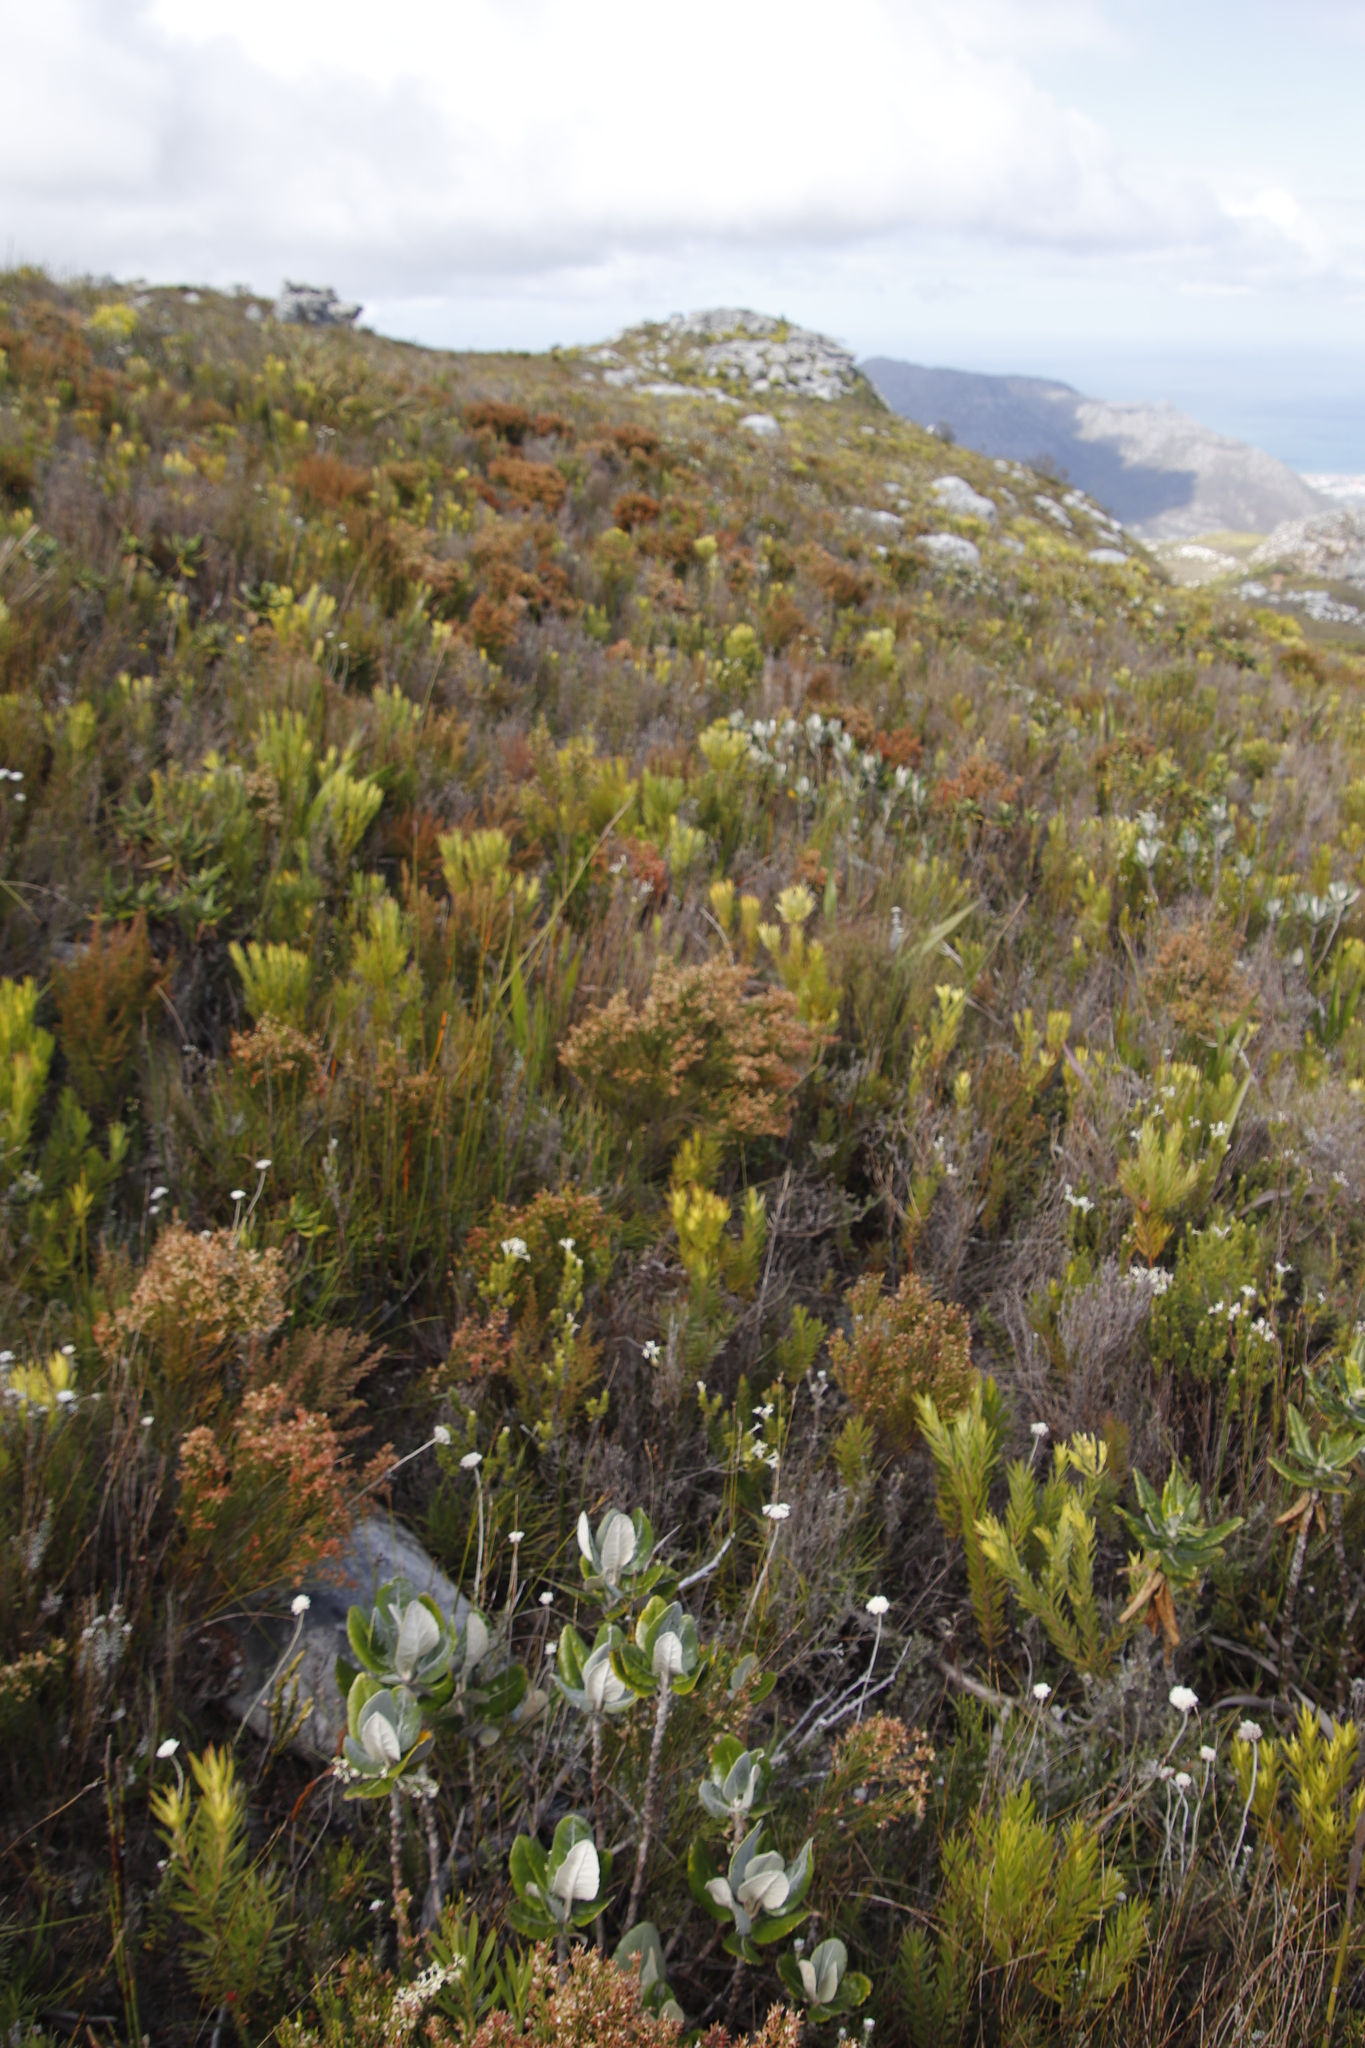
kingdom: Plantae
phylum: Tracheophyta
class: Magnoliopsida
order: Ericales
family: Ericaceae
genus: Erica
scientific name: Erica lutea
